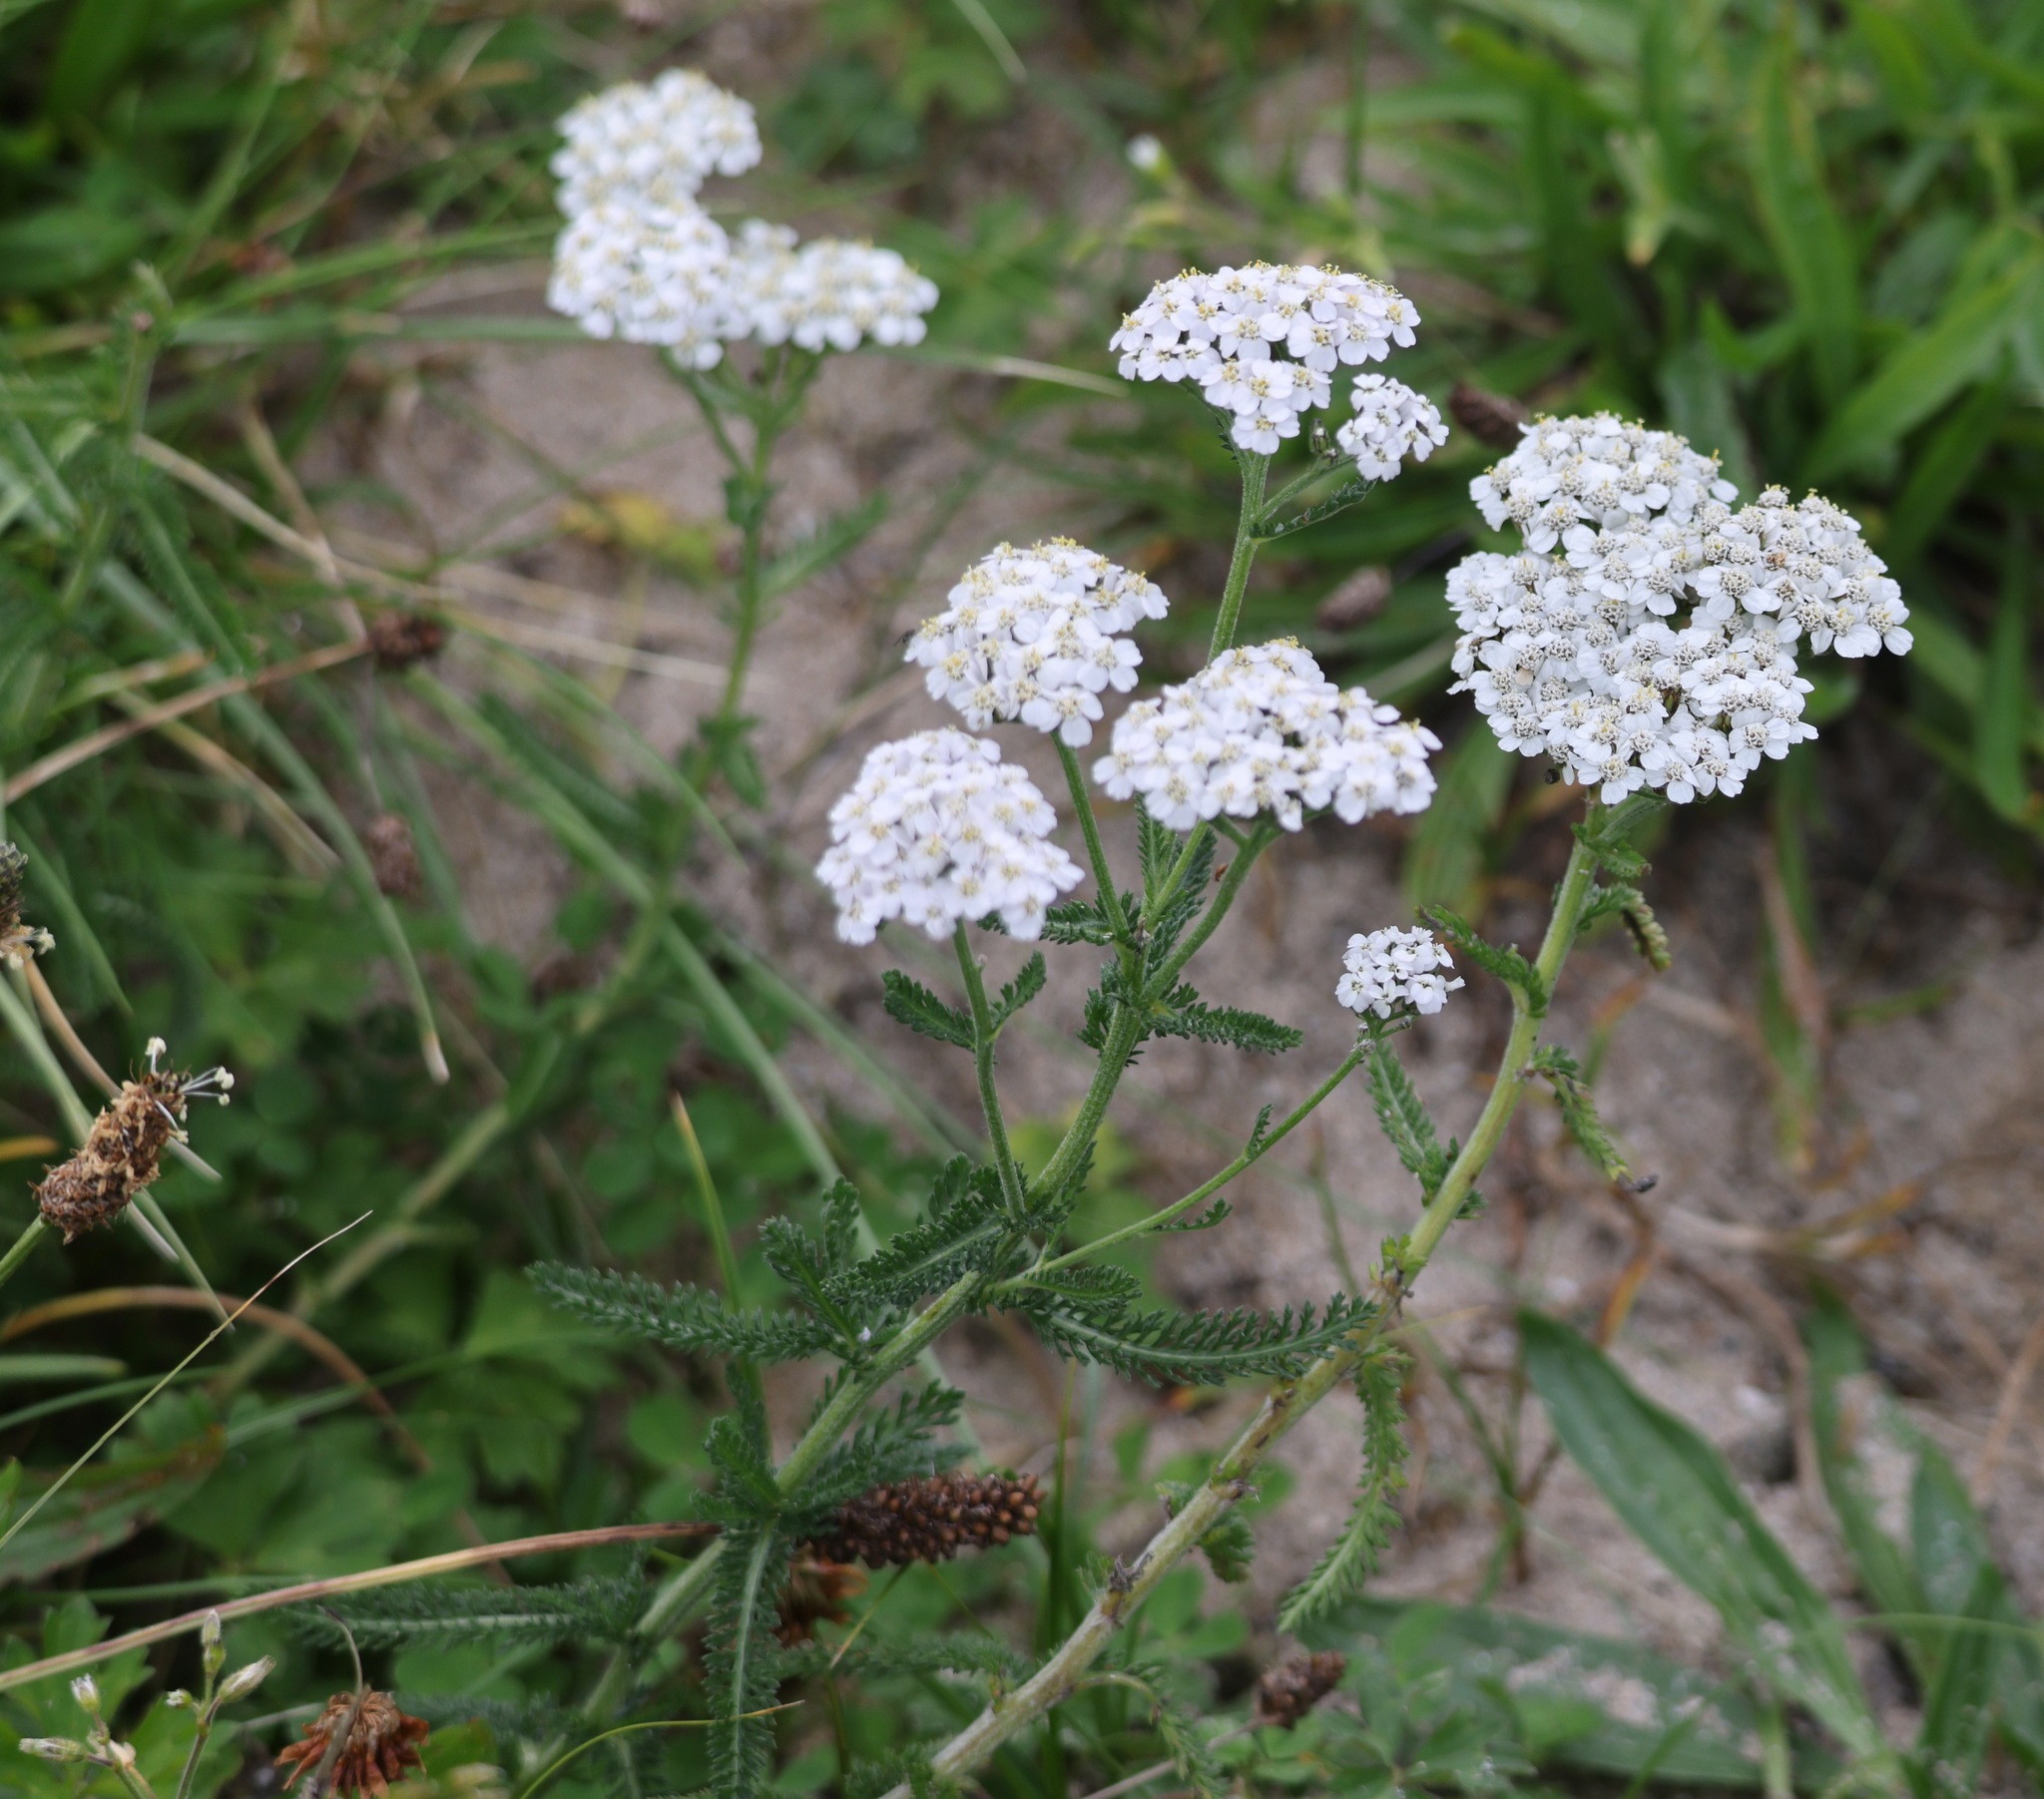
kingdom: Plantae
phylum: Tracheophyta
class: Magnoliopsida
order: Asterales
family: Asteraceae
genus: Achillea
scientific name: Achillea millefolium
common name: Yarrow
